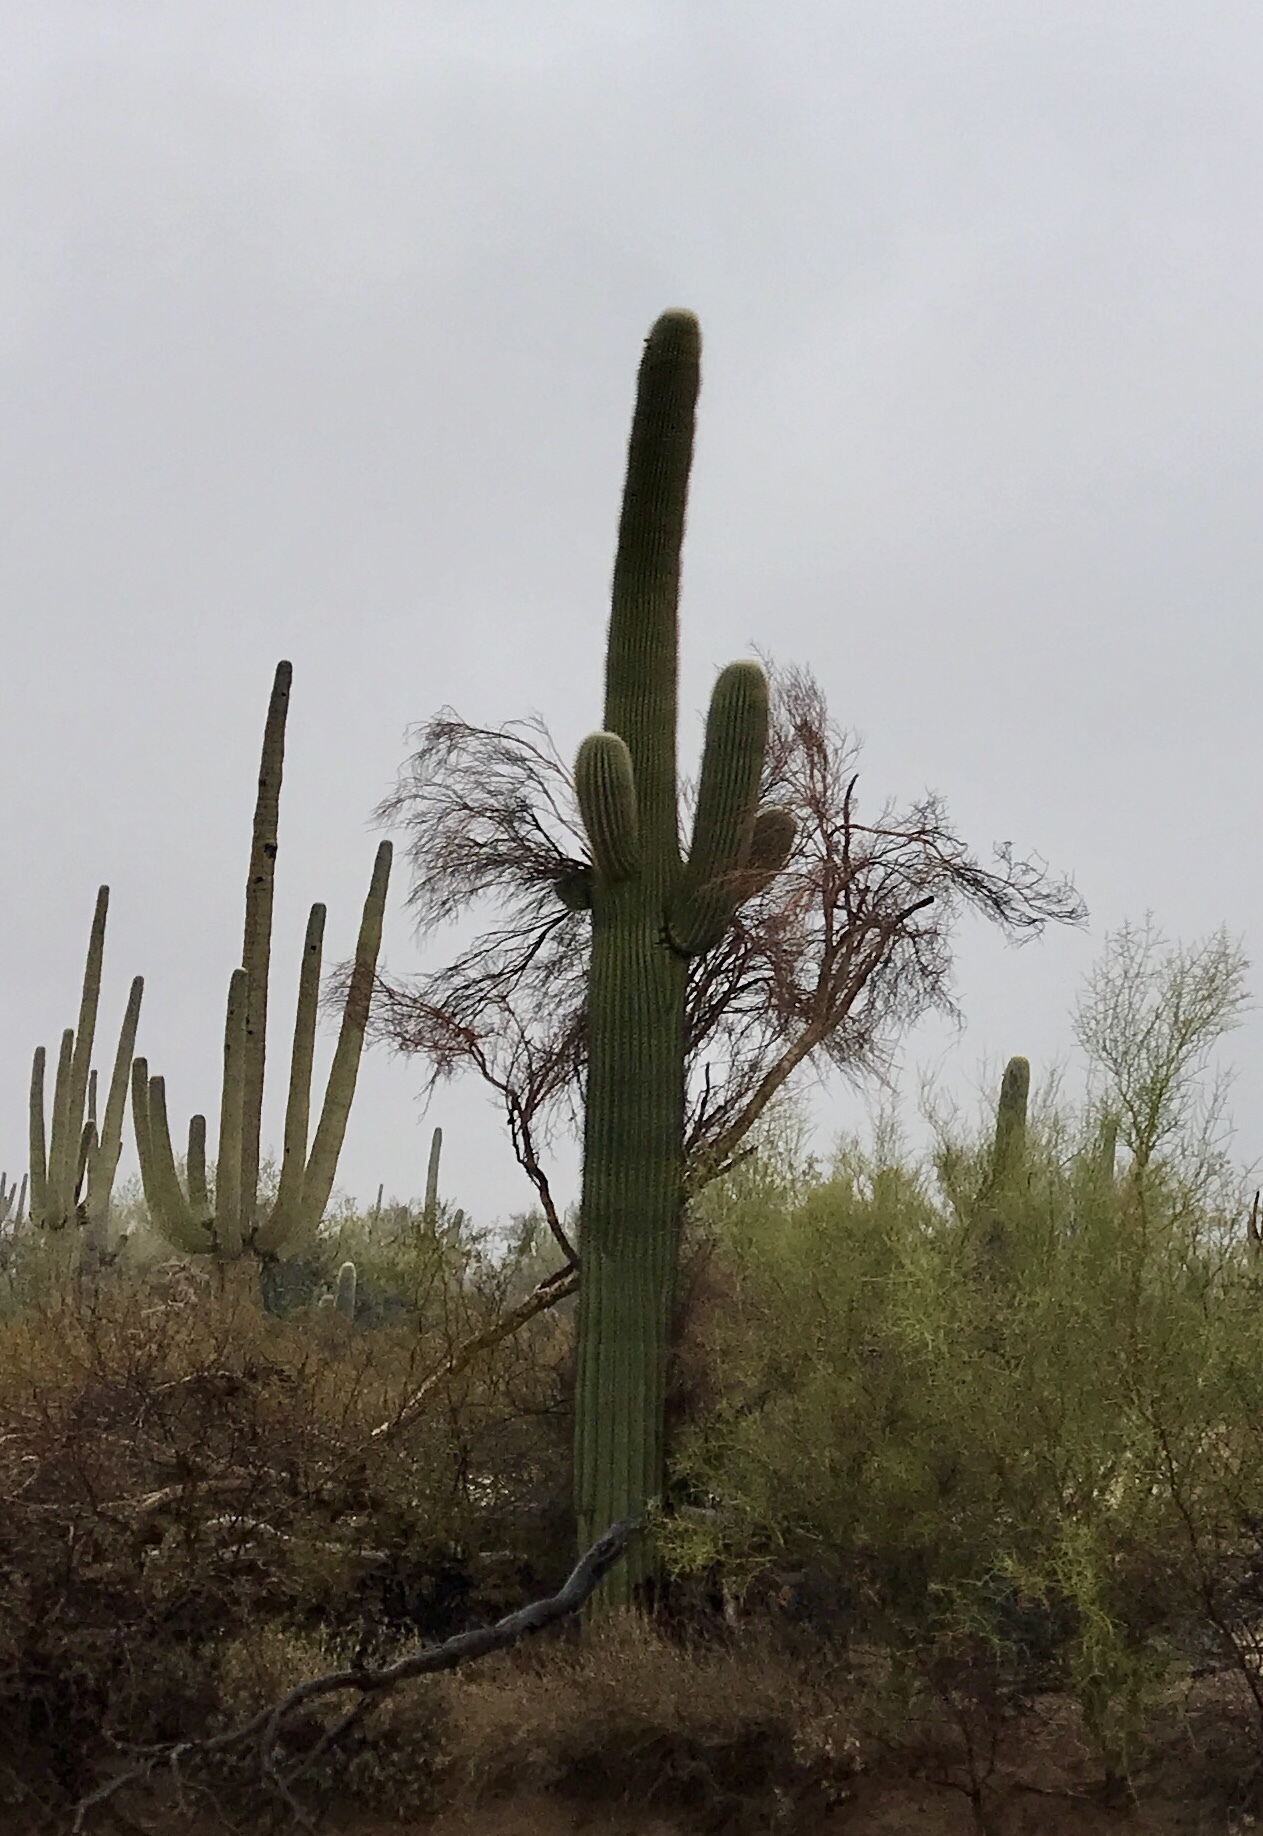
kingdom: Plantae
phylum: Tracheophyta
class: Magnoliopsida
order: Caryophyllales
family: Cactaceae
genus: Carnegiea
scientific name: Carnegiea gigantea
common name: Saguaro
